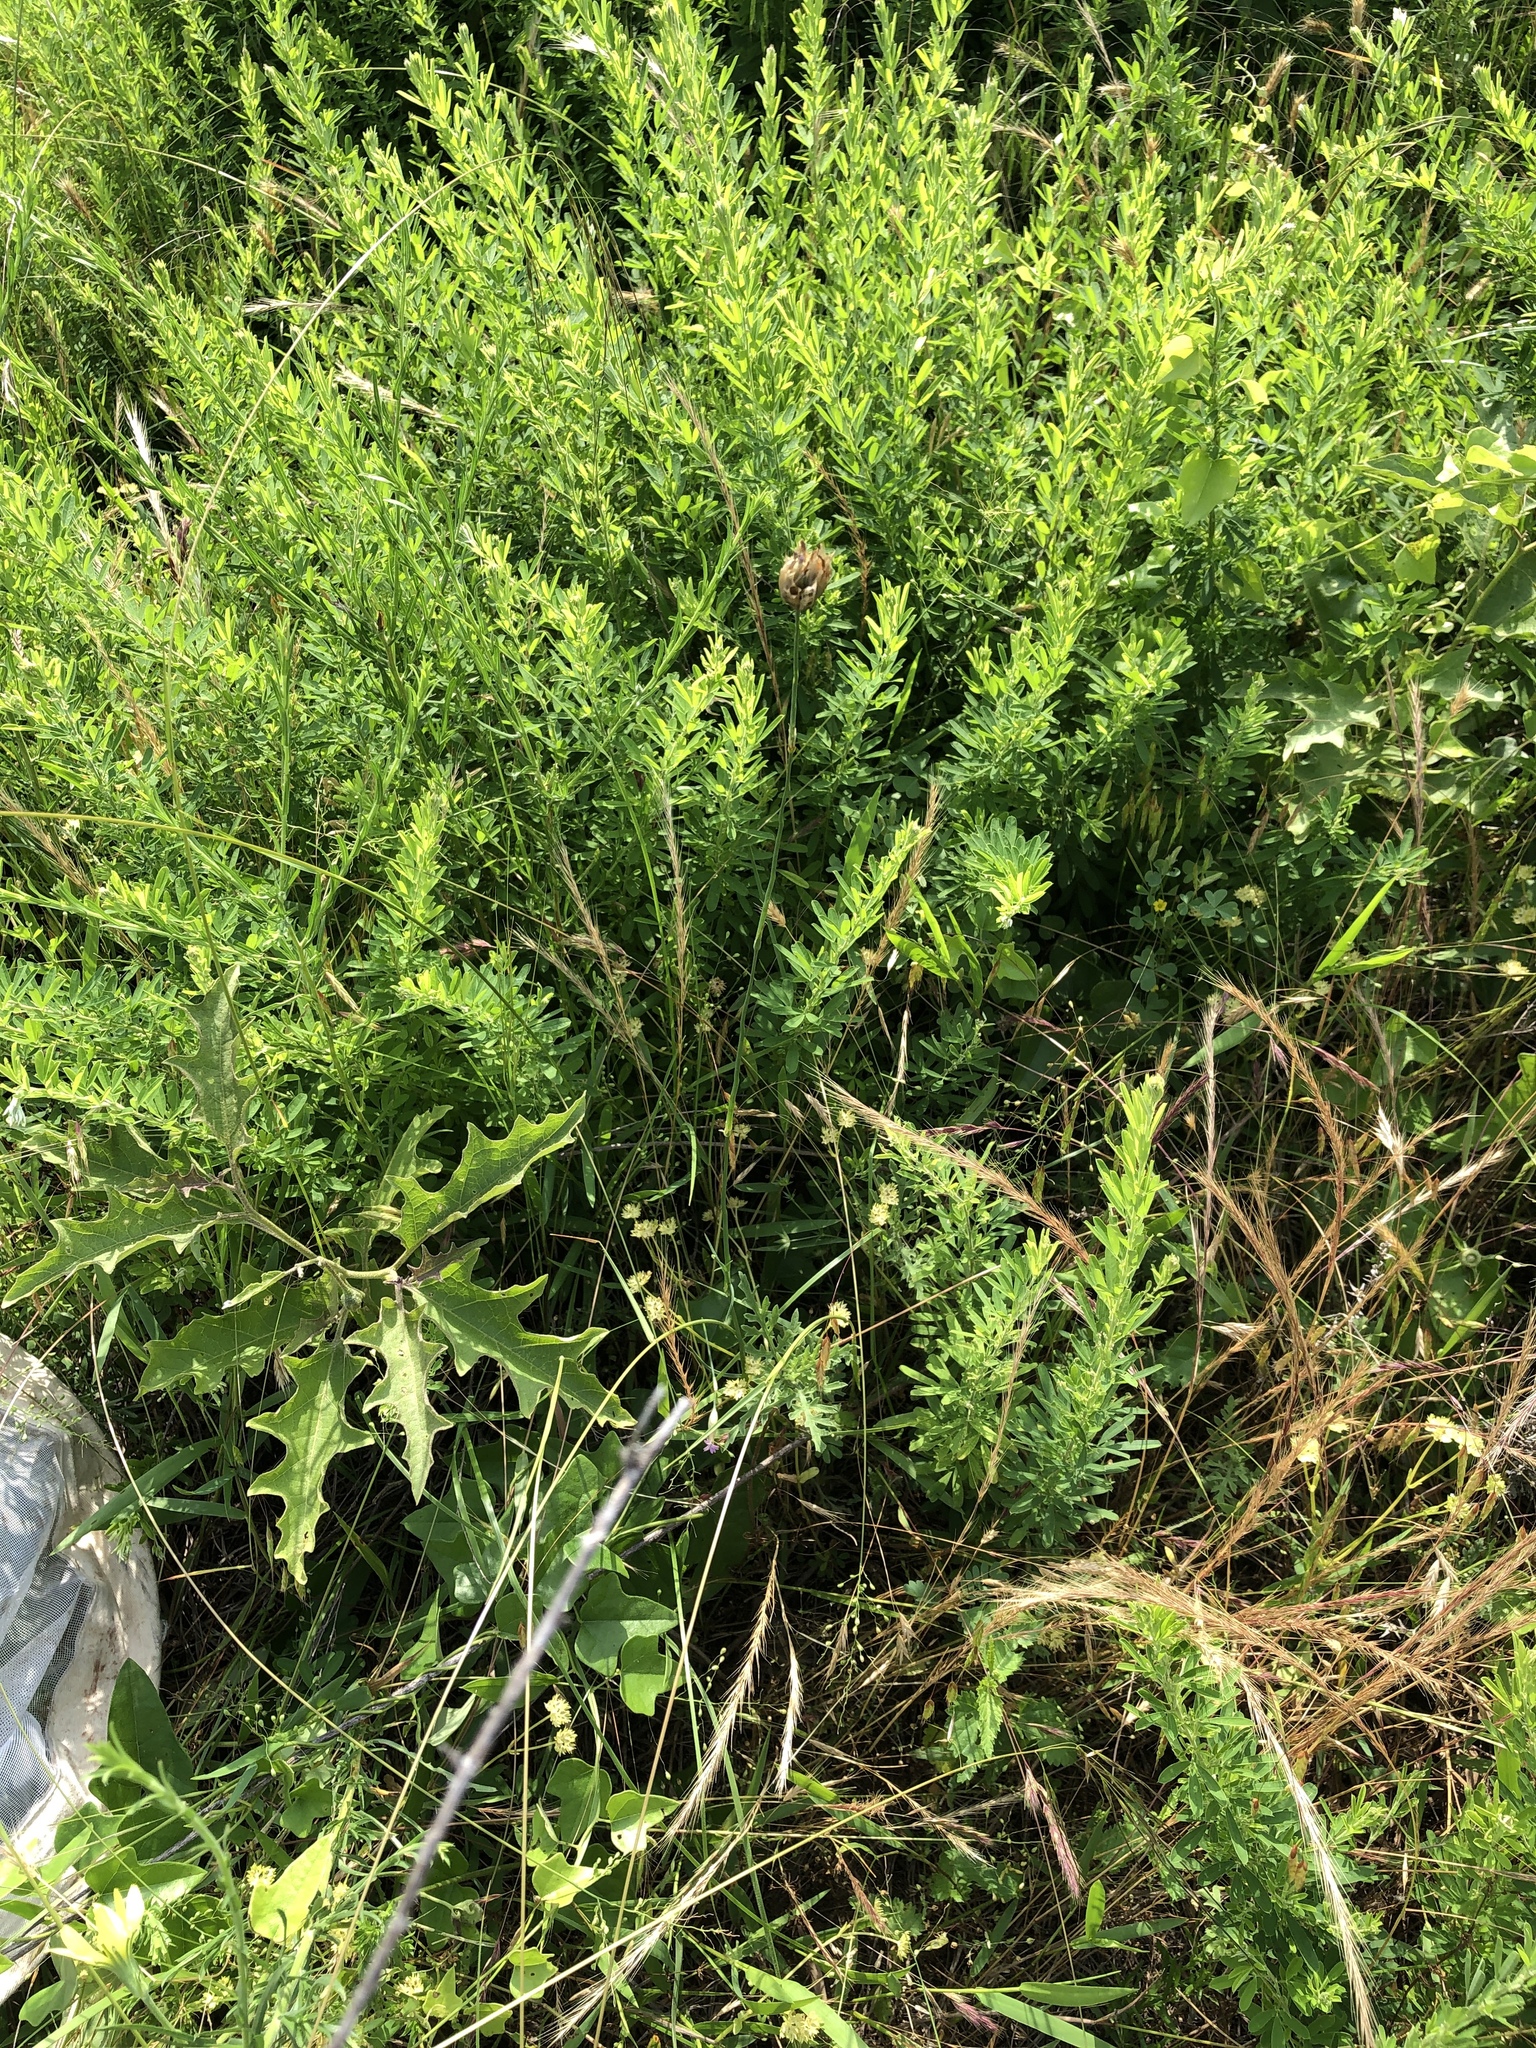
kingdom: Plantae
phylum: Tracheophyta
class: Magnoliopsida
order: Caryophyllales
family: Caryophyllaceae
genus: Petrorhagia
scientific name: Petrorhagia dubia
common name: Hairypink
